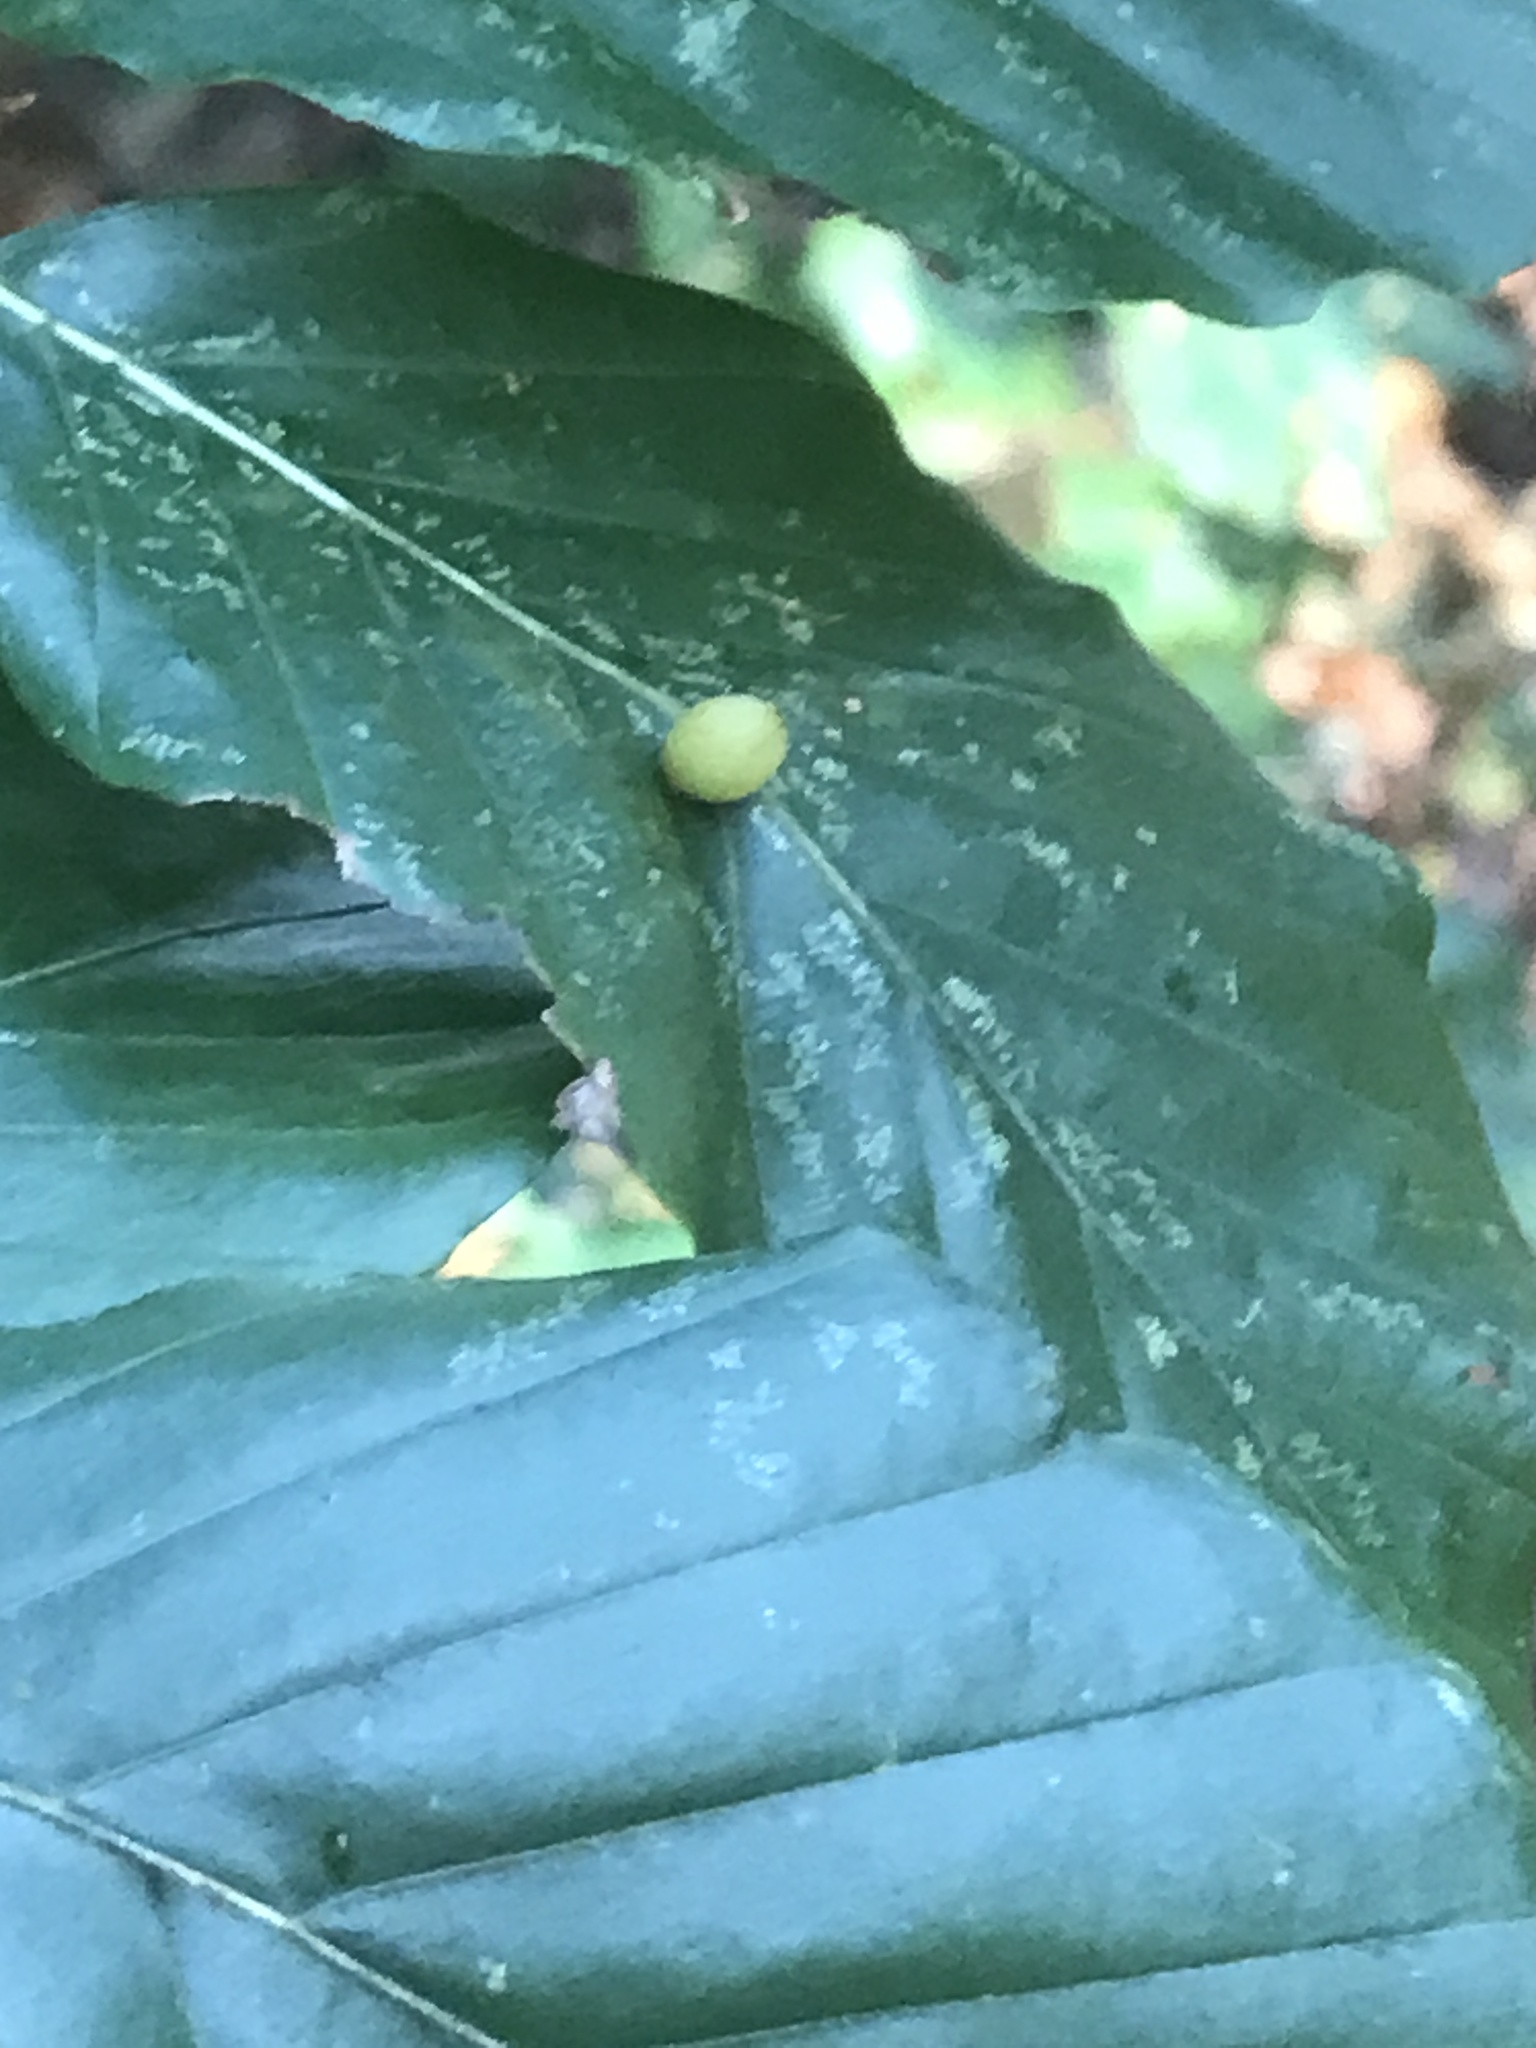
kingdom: Animalia
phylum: Arthropoda
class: Insecta
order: Diptera
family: Cecidomyiidae
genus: Mikiola
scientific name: Mikiola fagi
